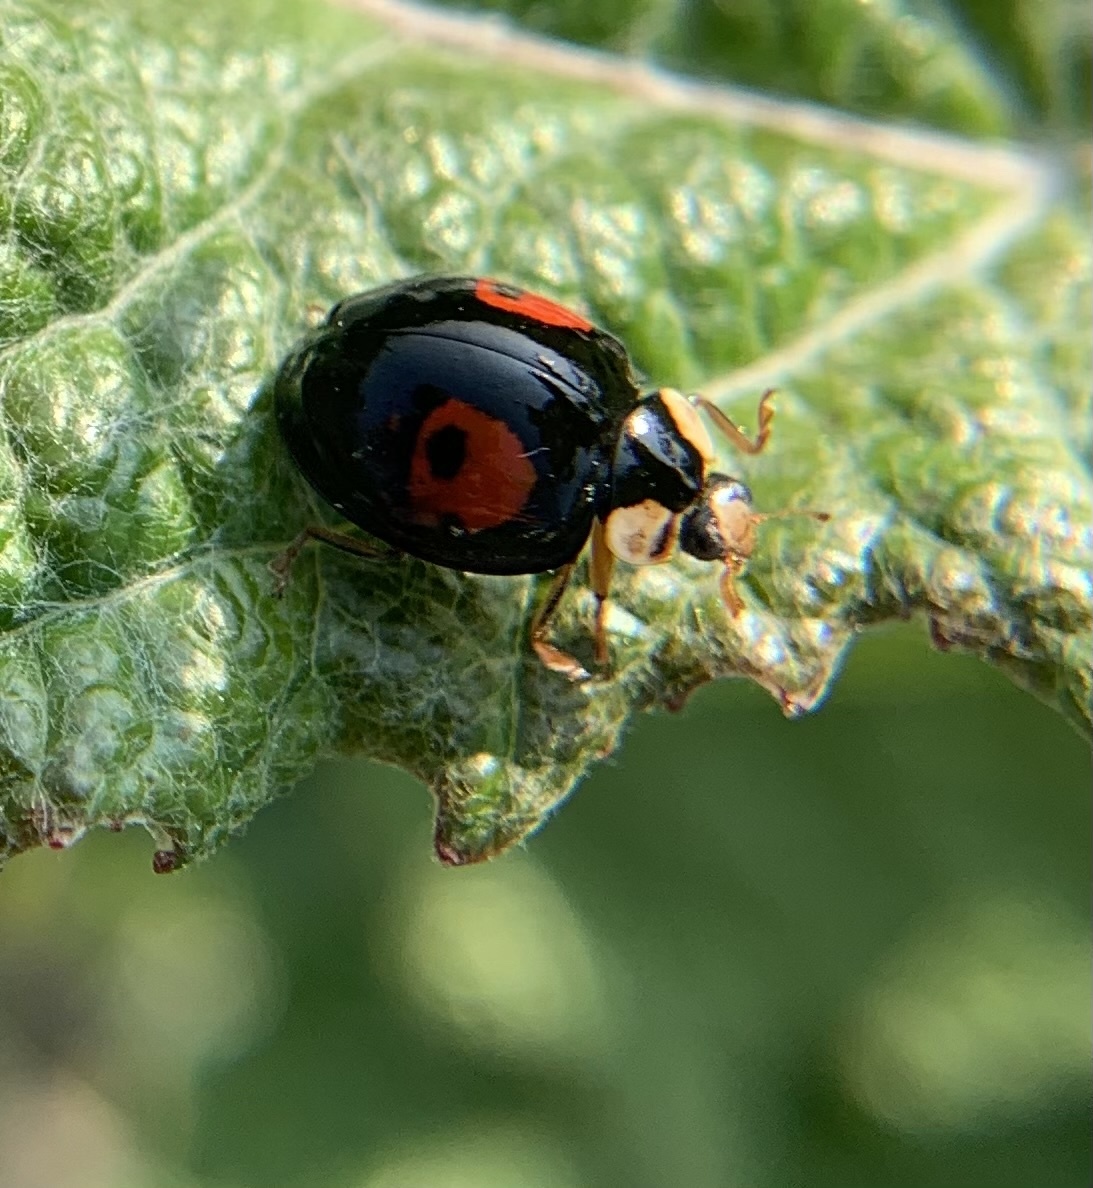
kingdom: Animalia
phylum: Arthropoda
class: Insecta
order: Coleoptera
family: Coccinellidae
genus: Harmonia
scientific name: Harmonia axyridis
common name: Harlequin ladybird
